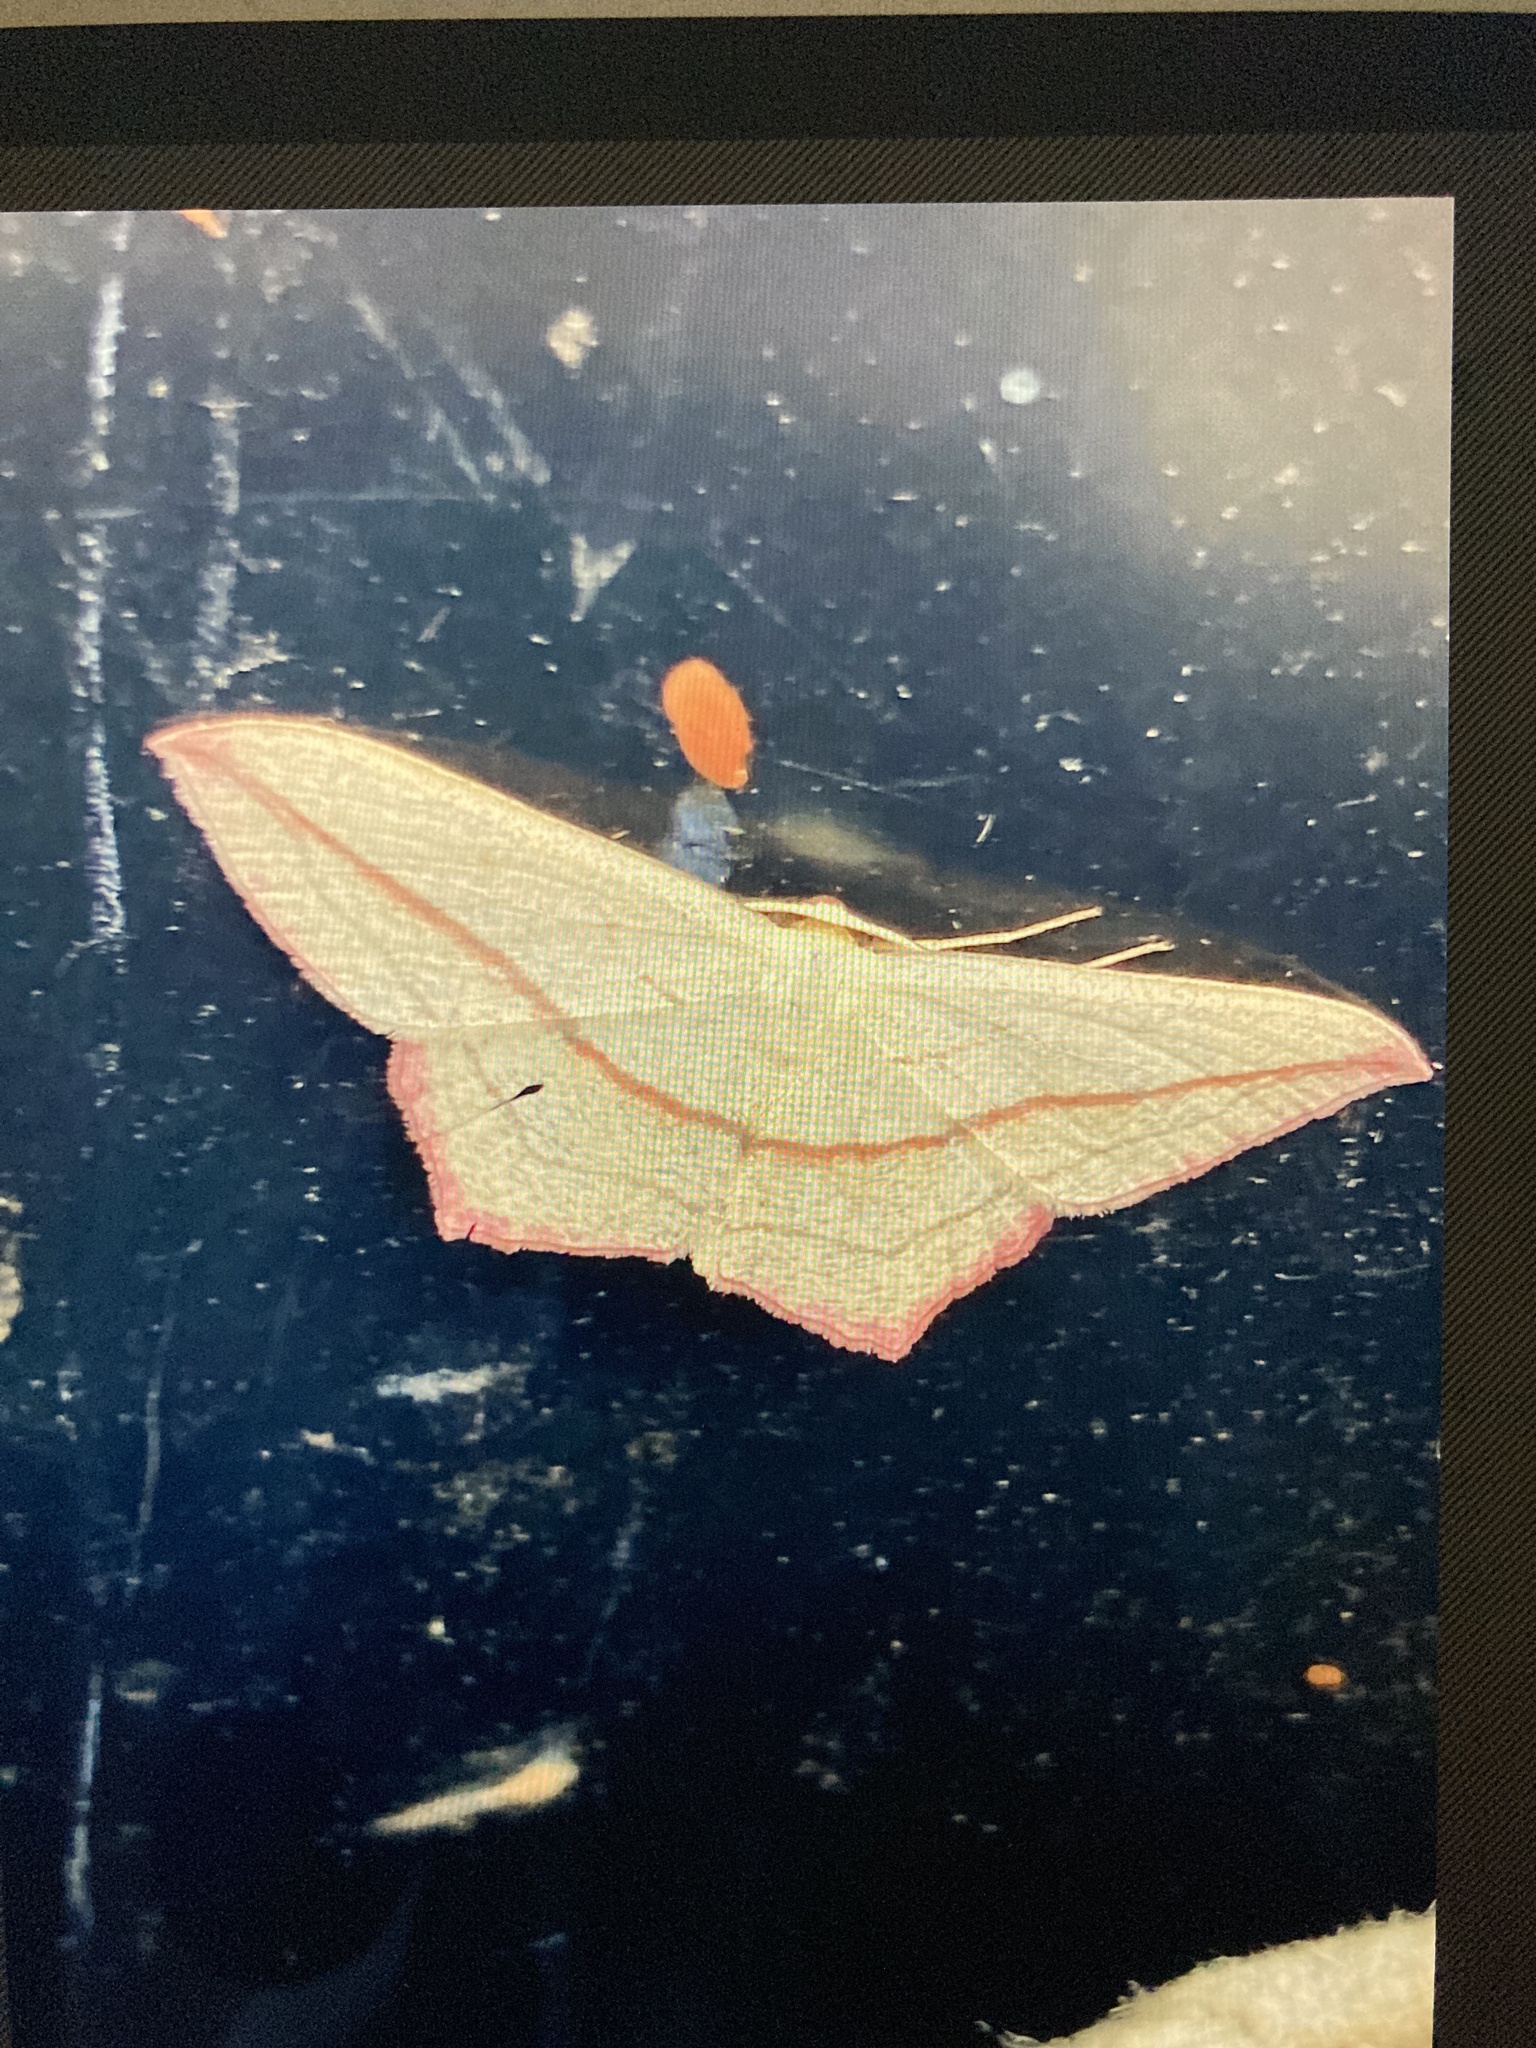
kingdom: Animalia
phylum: Arthropoda
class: Insecta
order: Lepidoptera
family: Geometridae
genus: Timandra
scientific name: Timandra comae
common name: Blood-vein
